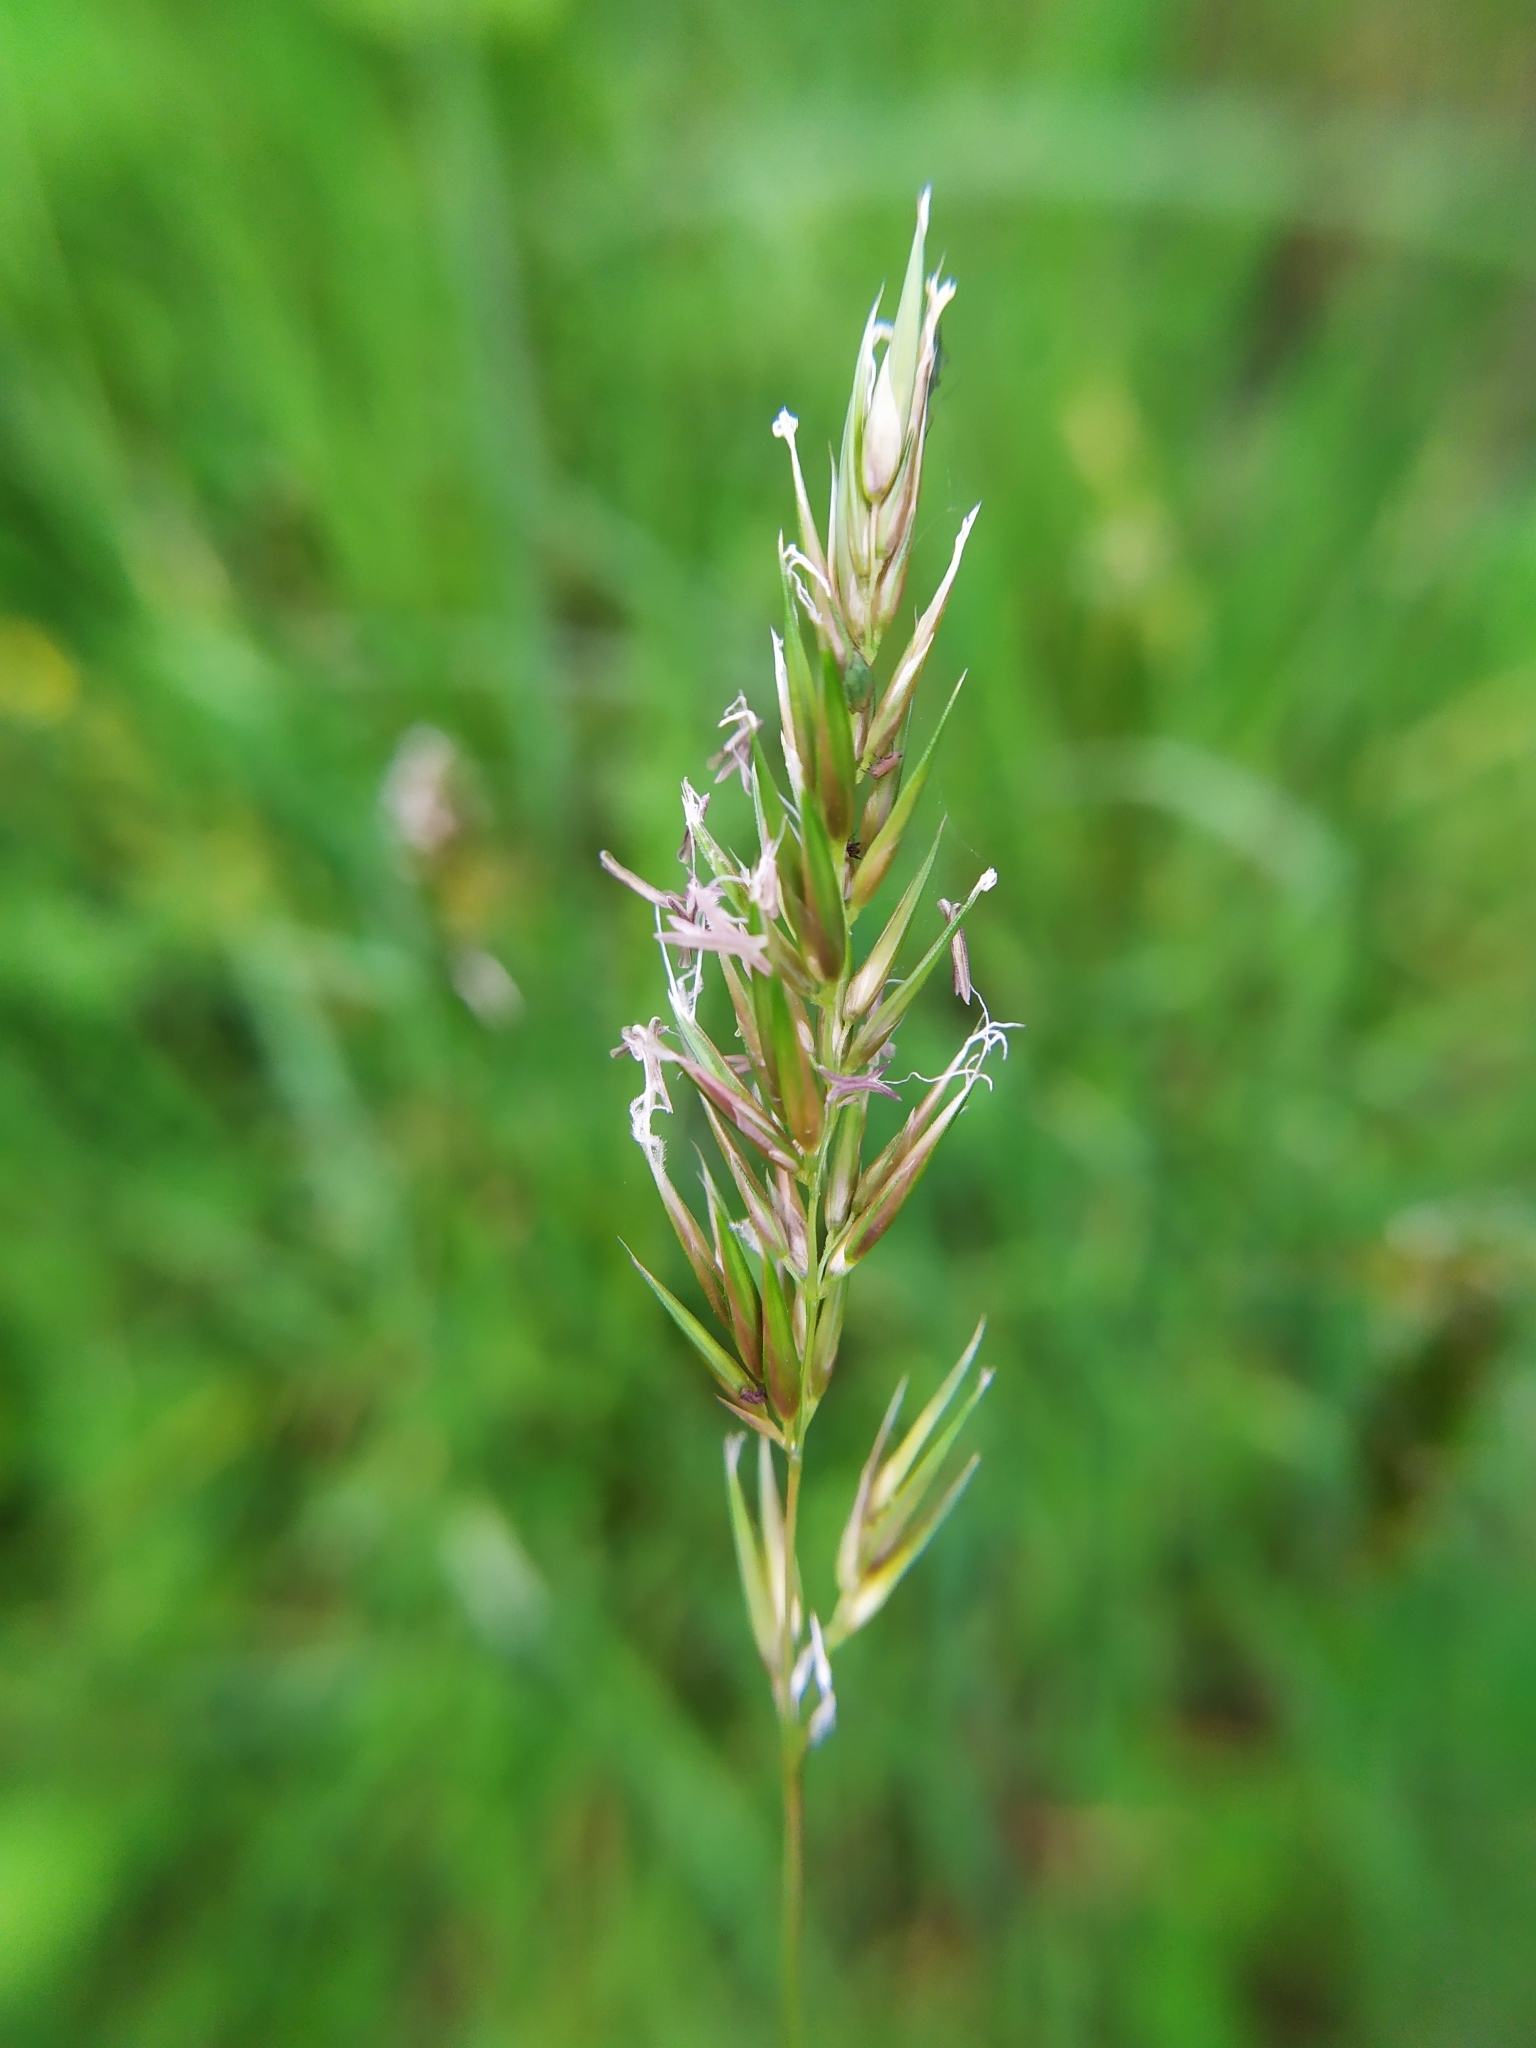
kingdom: Plantae
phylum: Tracheophyta
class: Liliopsida
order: Poales
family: Poaceae
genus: Anthoxanthum
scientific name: Anthoxanthum odoratum
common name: Sweet vernalgrass
